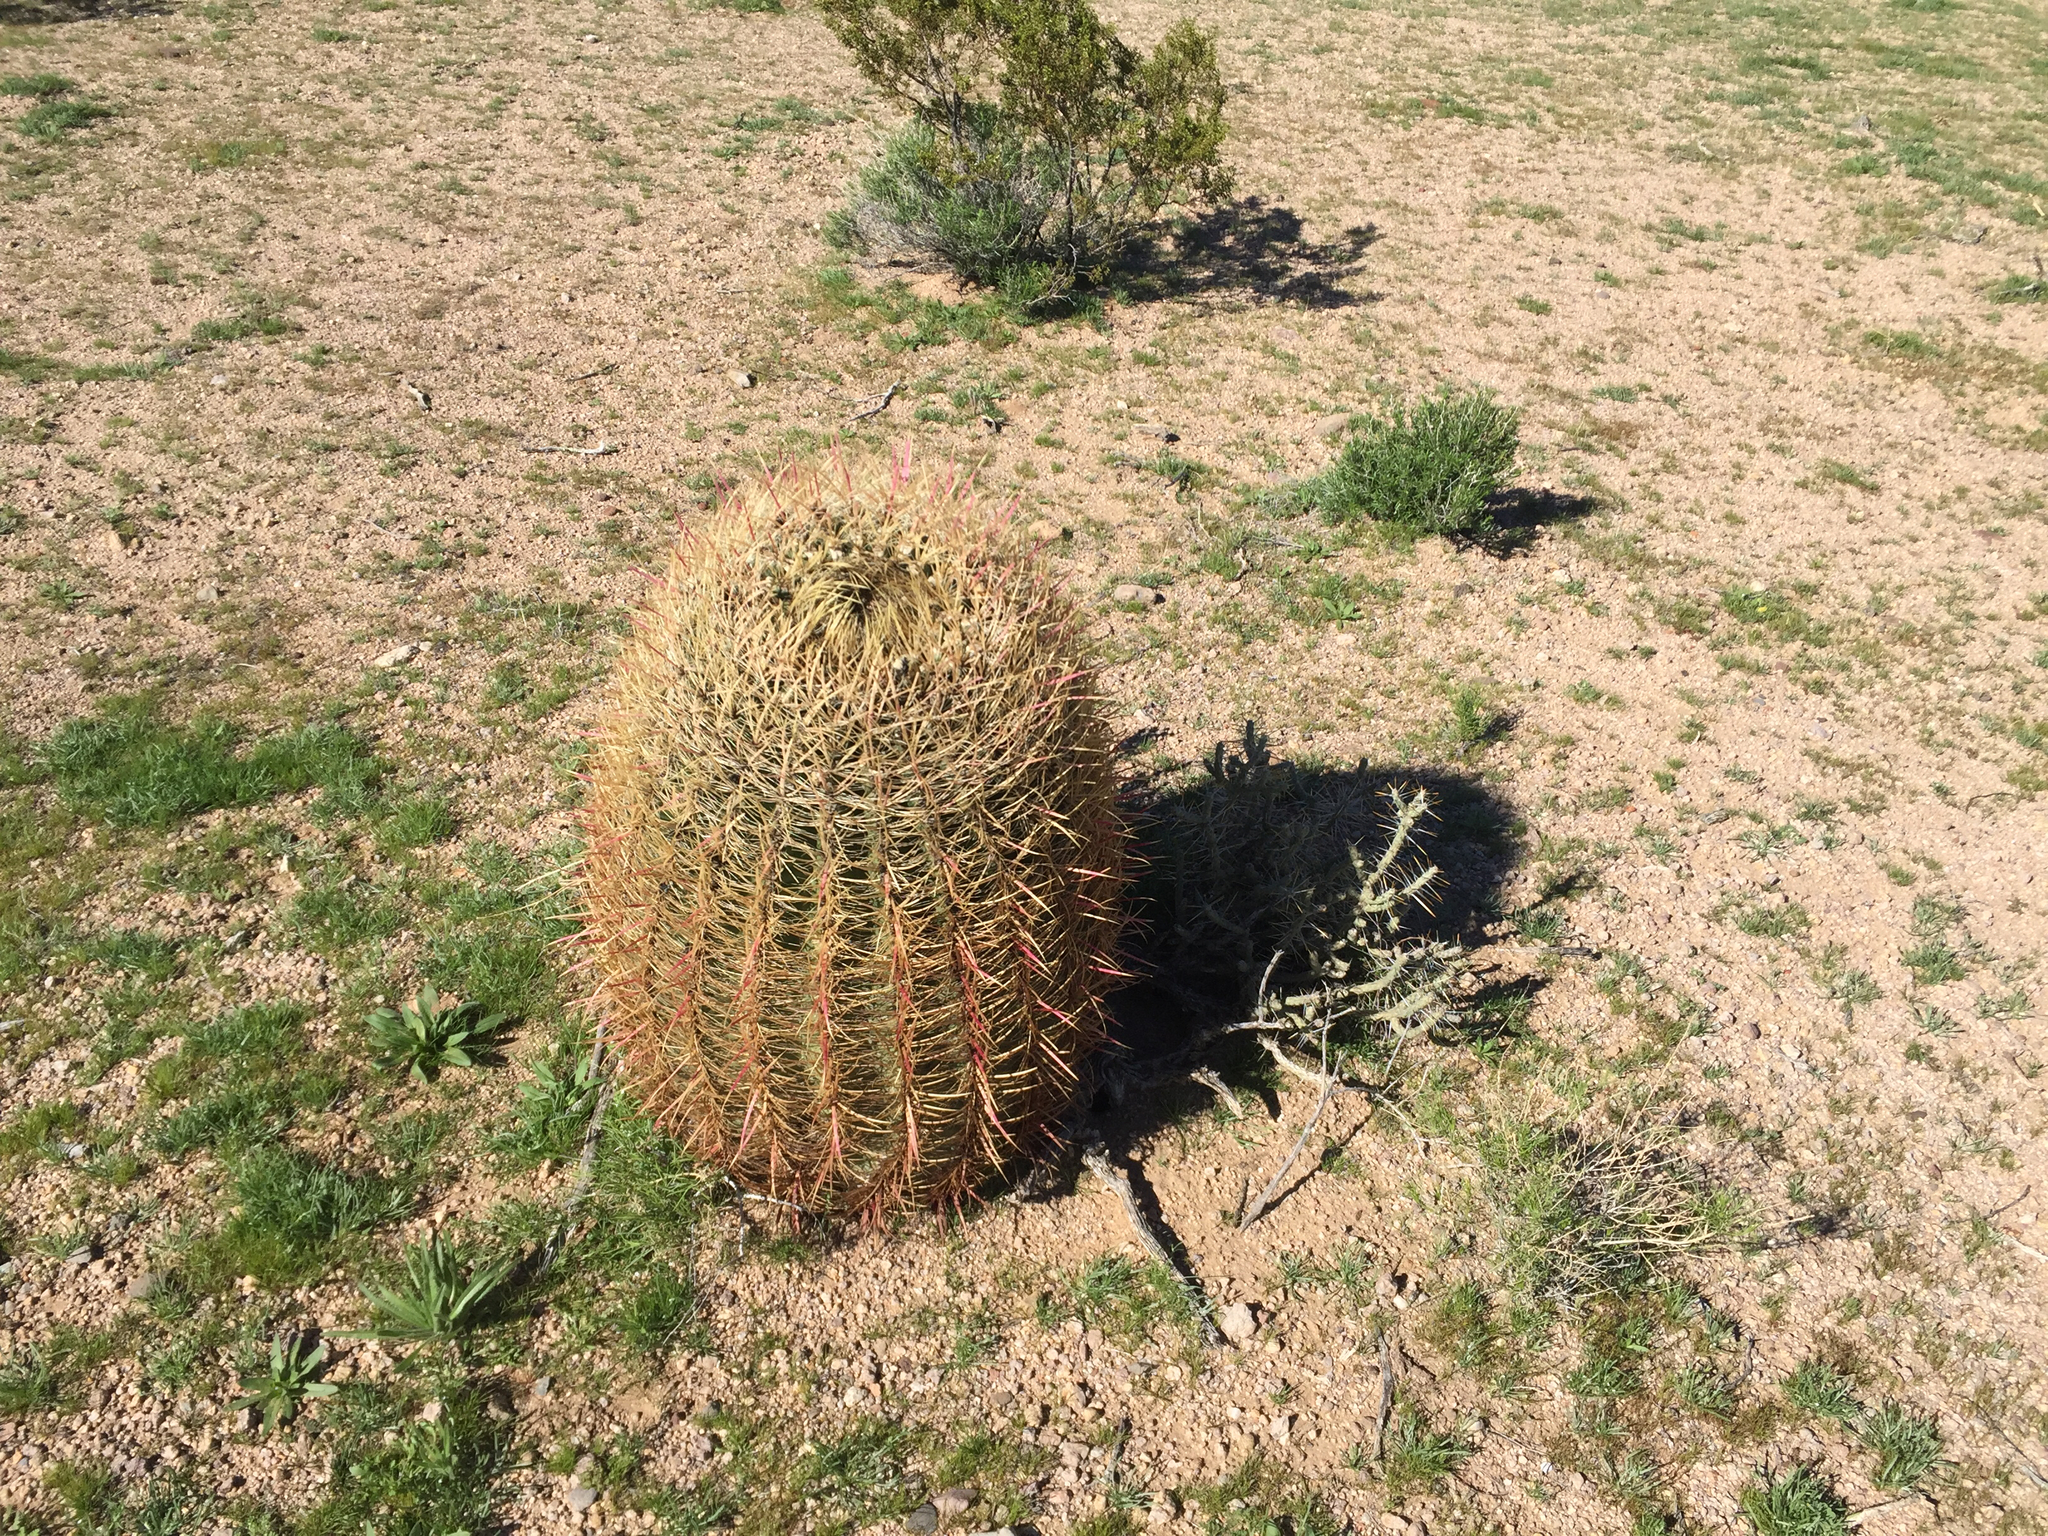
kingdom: Plantae
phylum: Tracheophyta
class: Magnoliopsida
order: Caryophyllales
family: Cactaceae
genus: Ferocactus
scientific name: Ferocactus cylindraceus
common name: California barrel cactus
